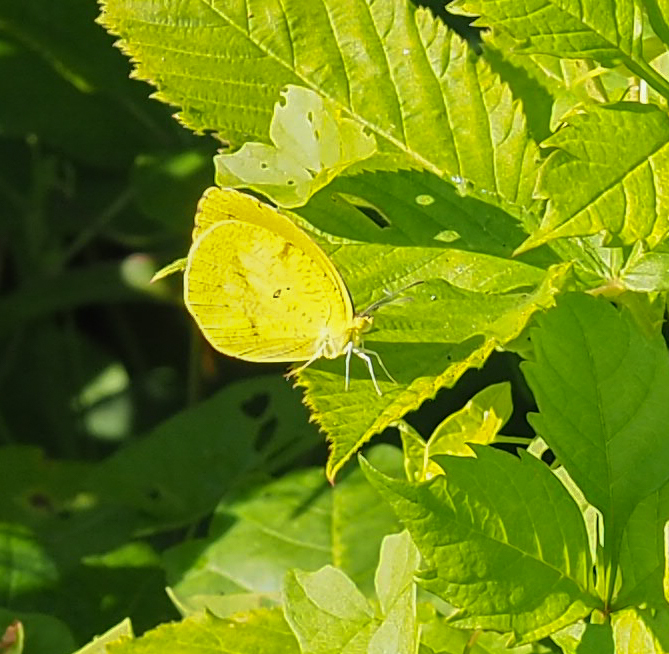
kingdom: Animalia
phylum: Arthropoda
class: Insecta
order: Lepidoptera
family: Pieridae
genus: Abaeis
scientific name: Abaeis nicippe
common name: Sleepy orange
